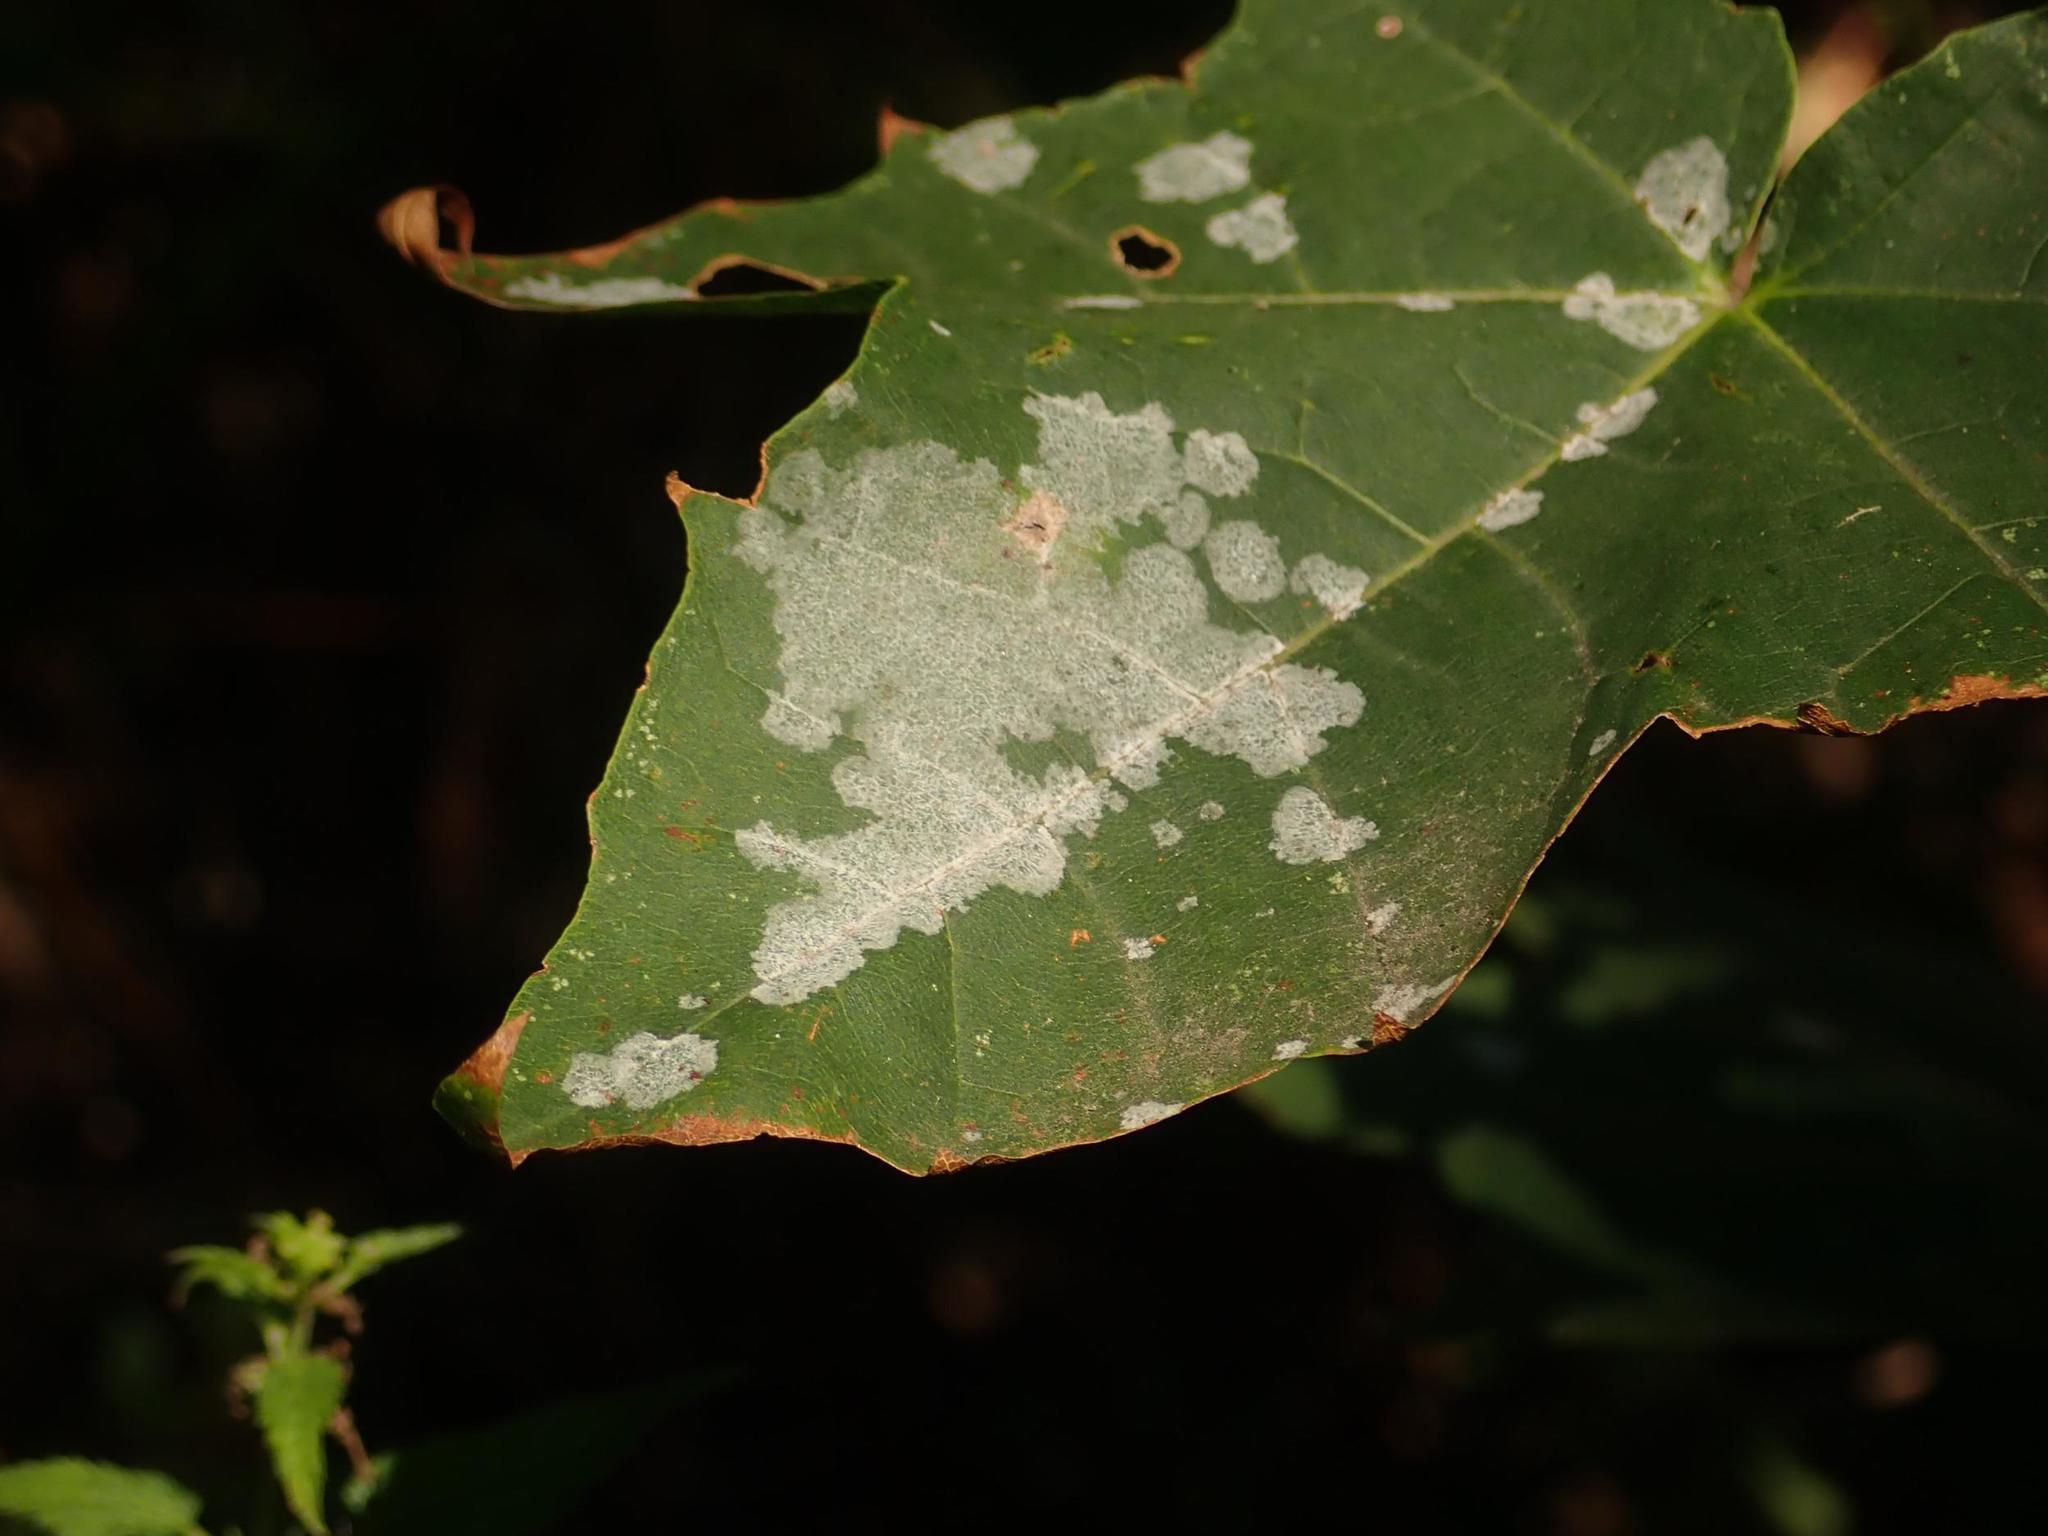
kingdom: Fungi
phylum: Ascomycota
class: Leotiomycetes
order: Helotiales
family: Erysiphaceae
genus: Sawadaea
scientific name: Sawadaea tulasnei
